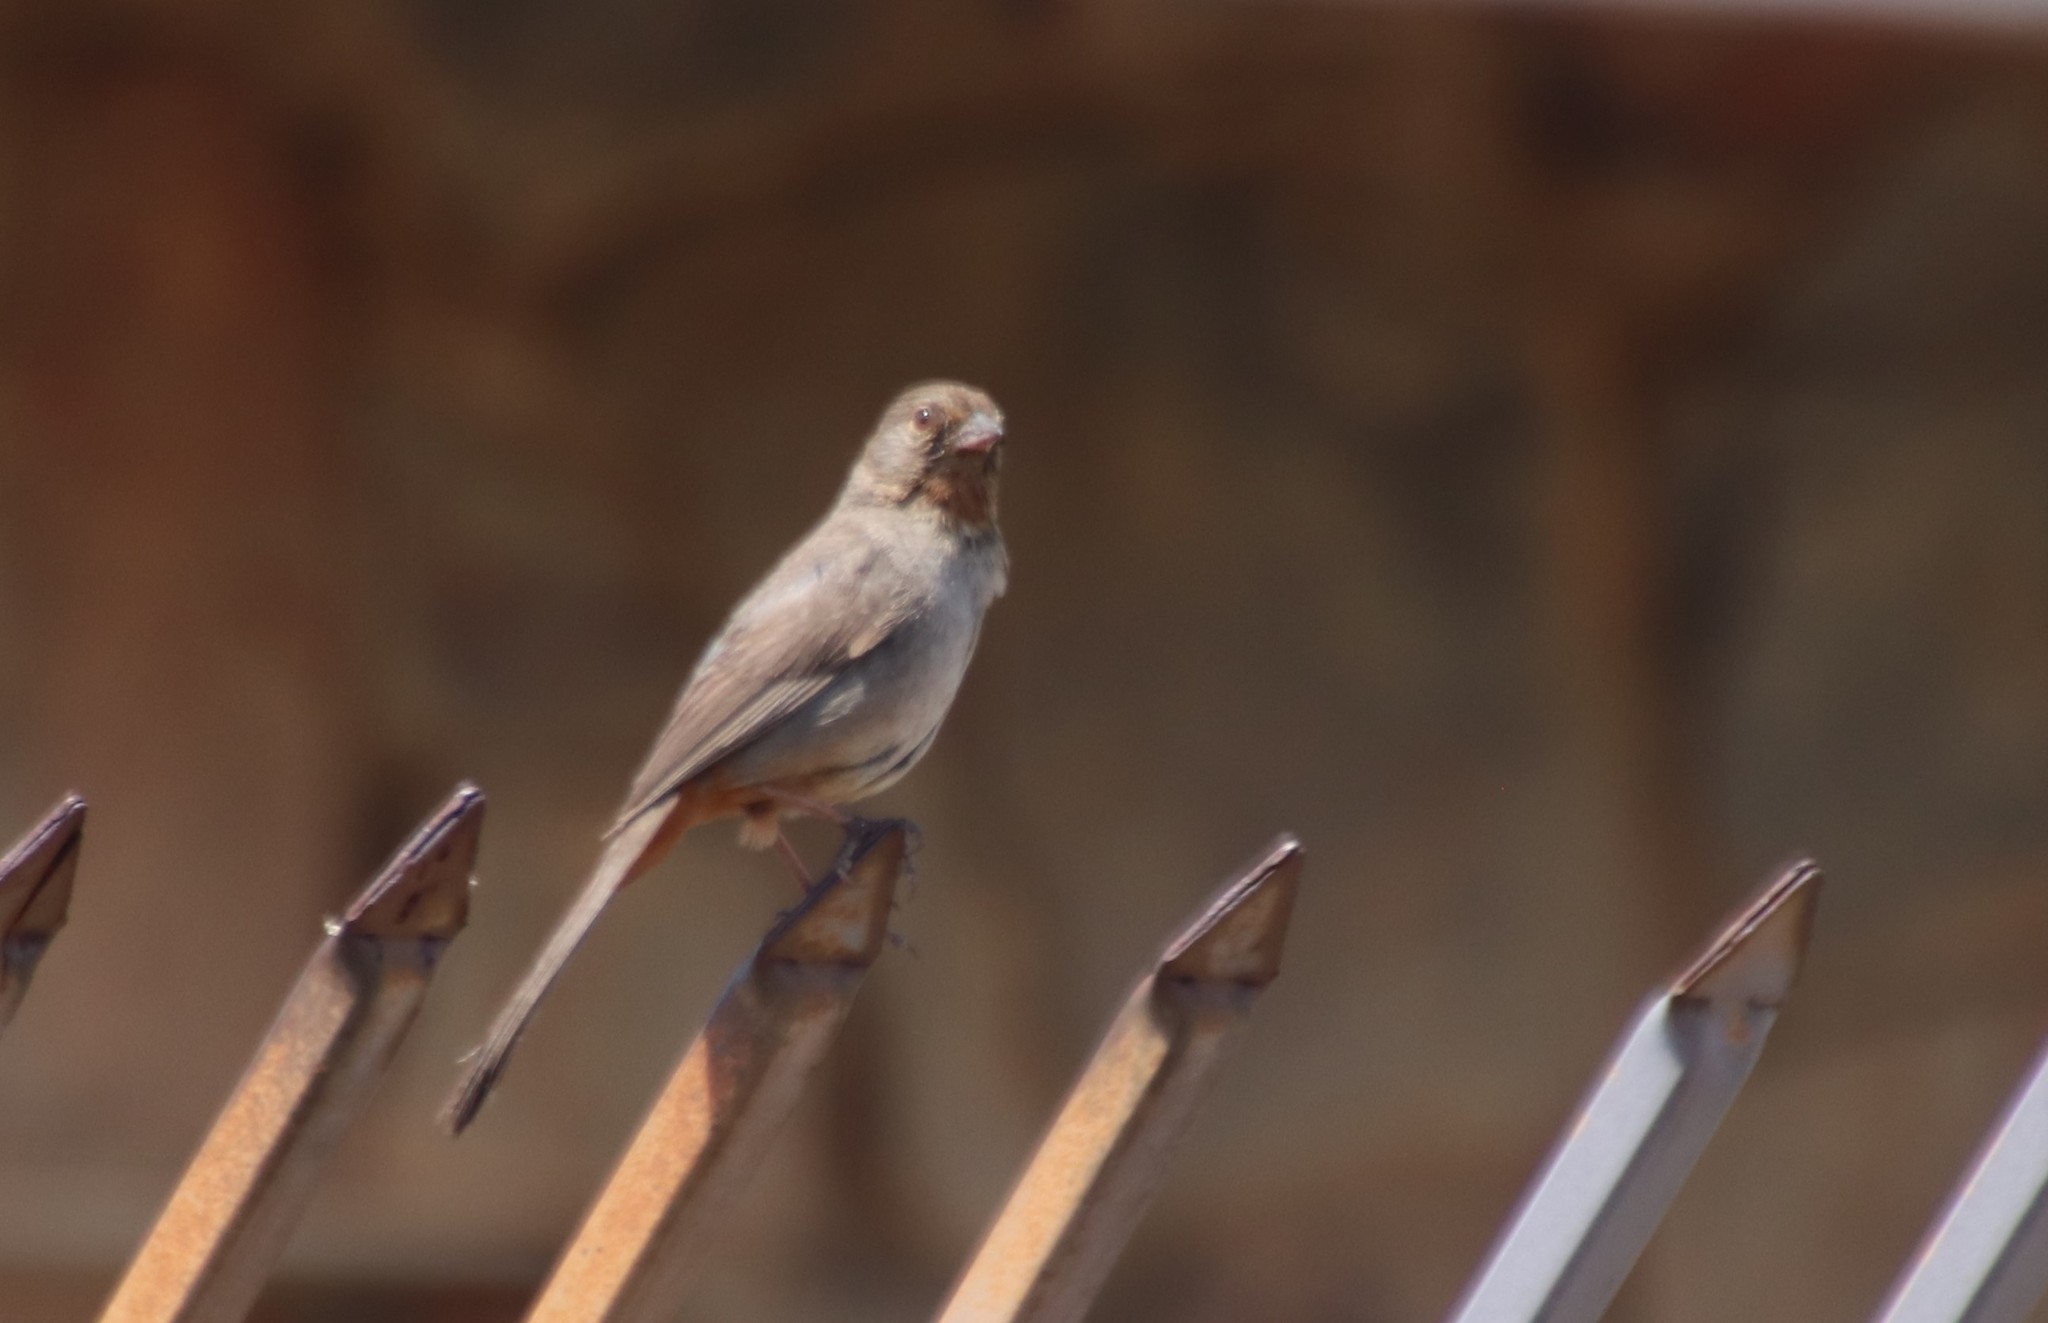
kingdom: Animalia
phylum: Chordata
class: Aves
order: Passeriformes
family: Passerellidae
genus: Melozone
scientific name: Melozone crissalis
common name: California towhee
